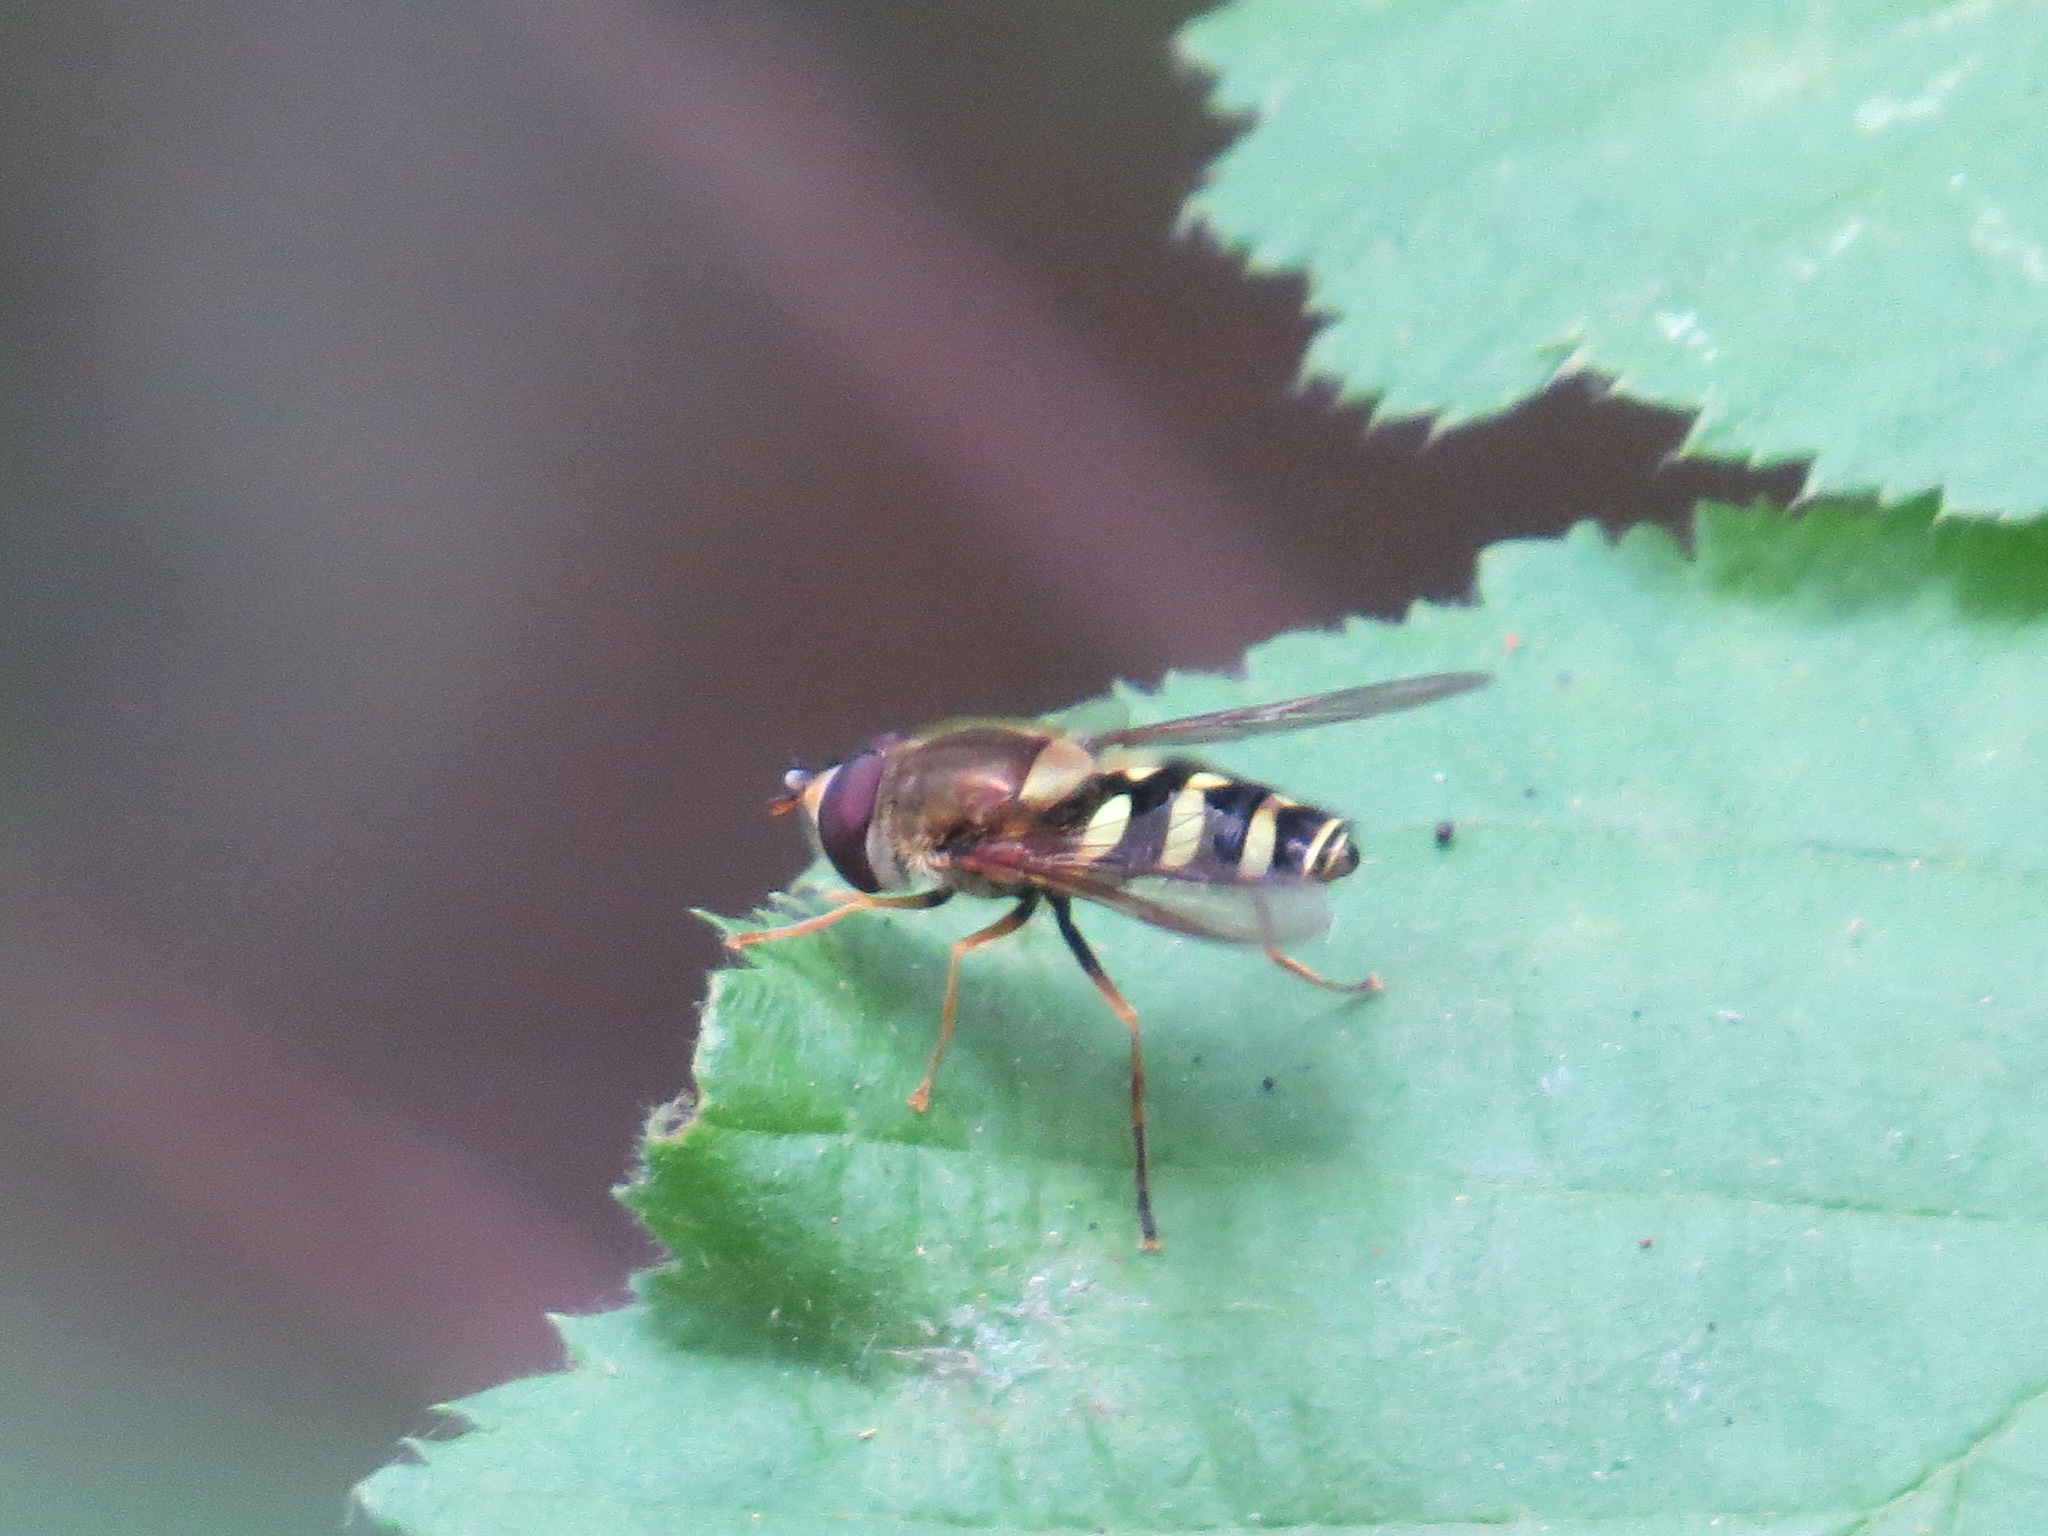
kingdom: Animalia
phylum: Arthropoda
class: Insecta
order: Diptera
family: Syrphidae
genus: Syrphus
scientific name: Syrphus opinator
